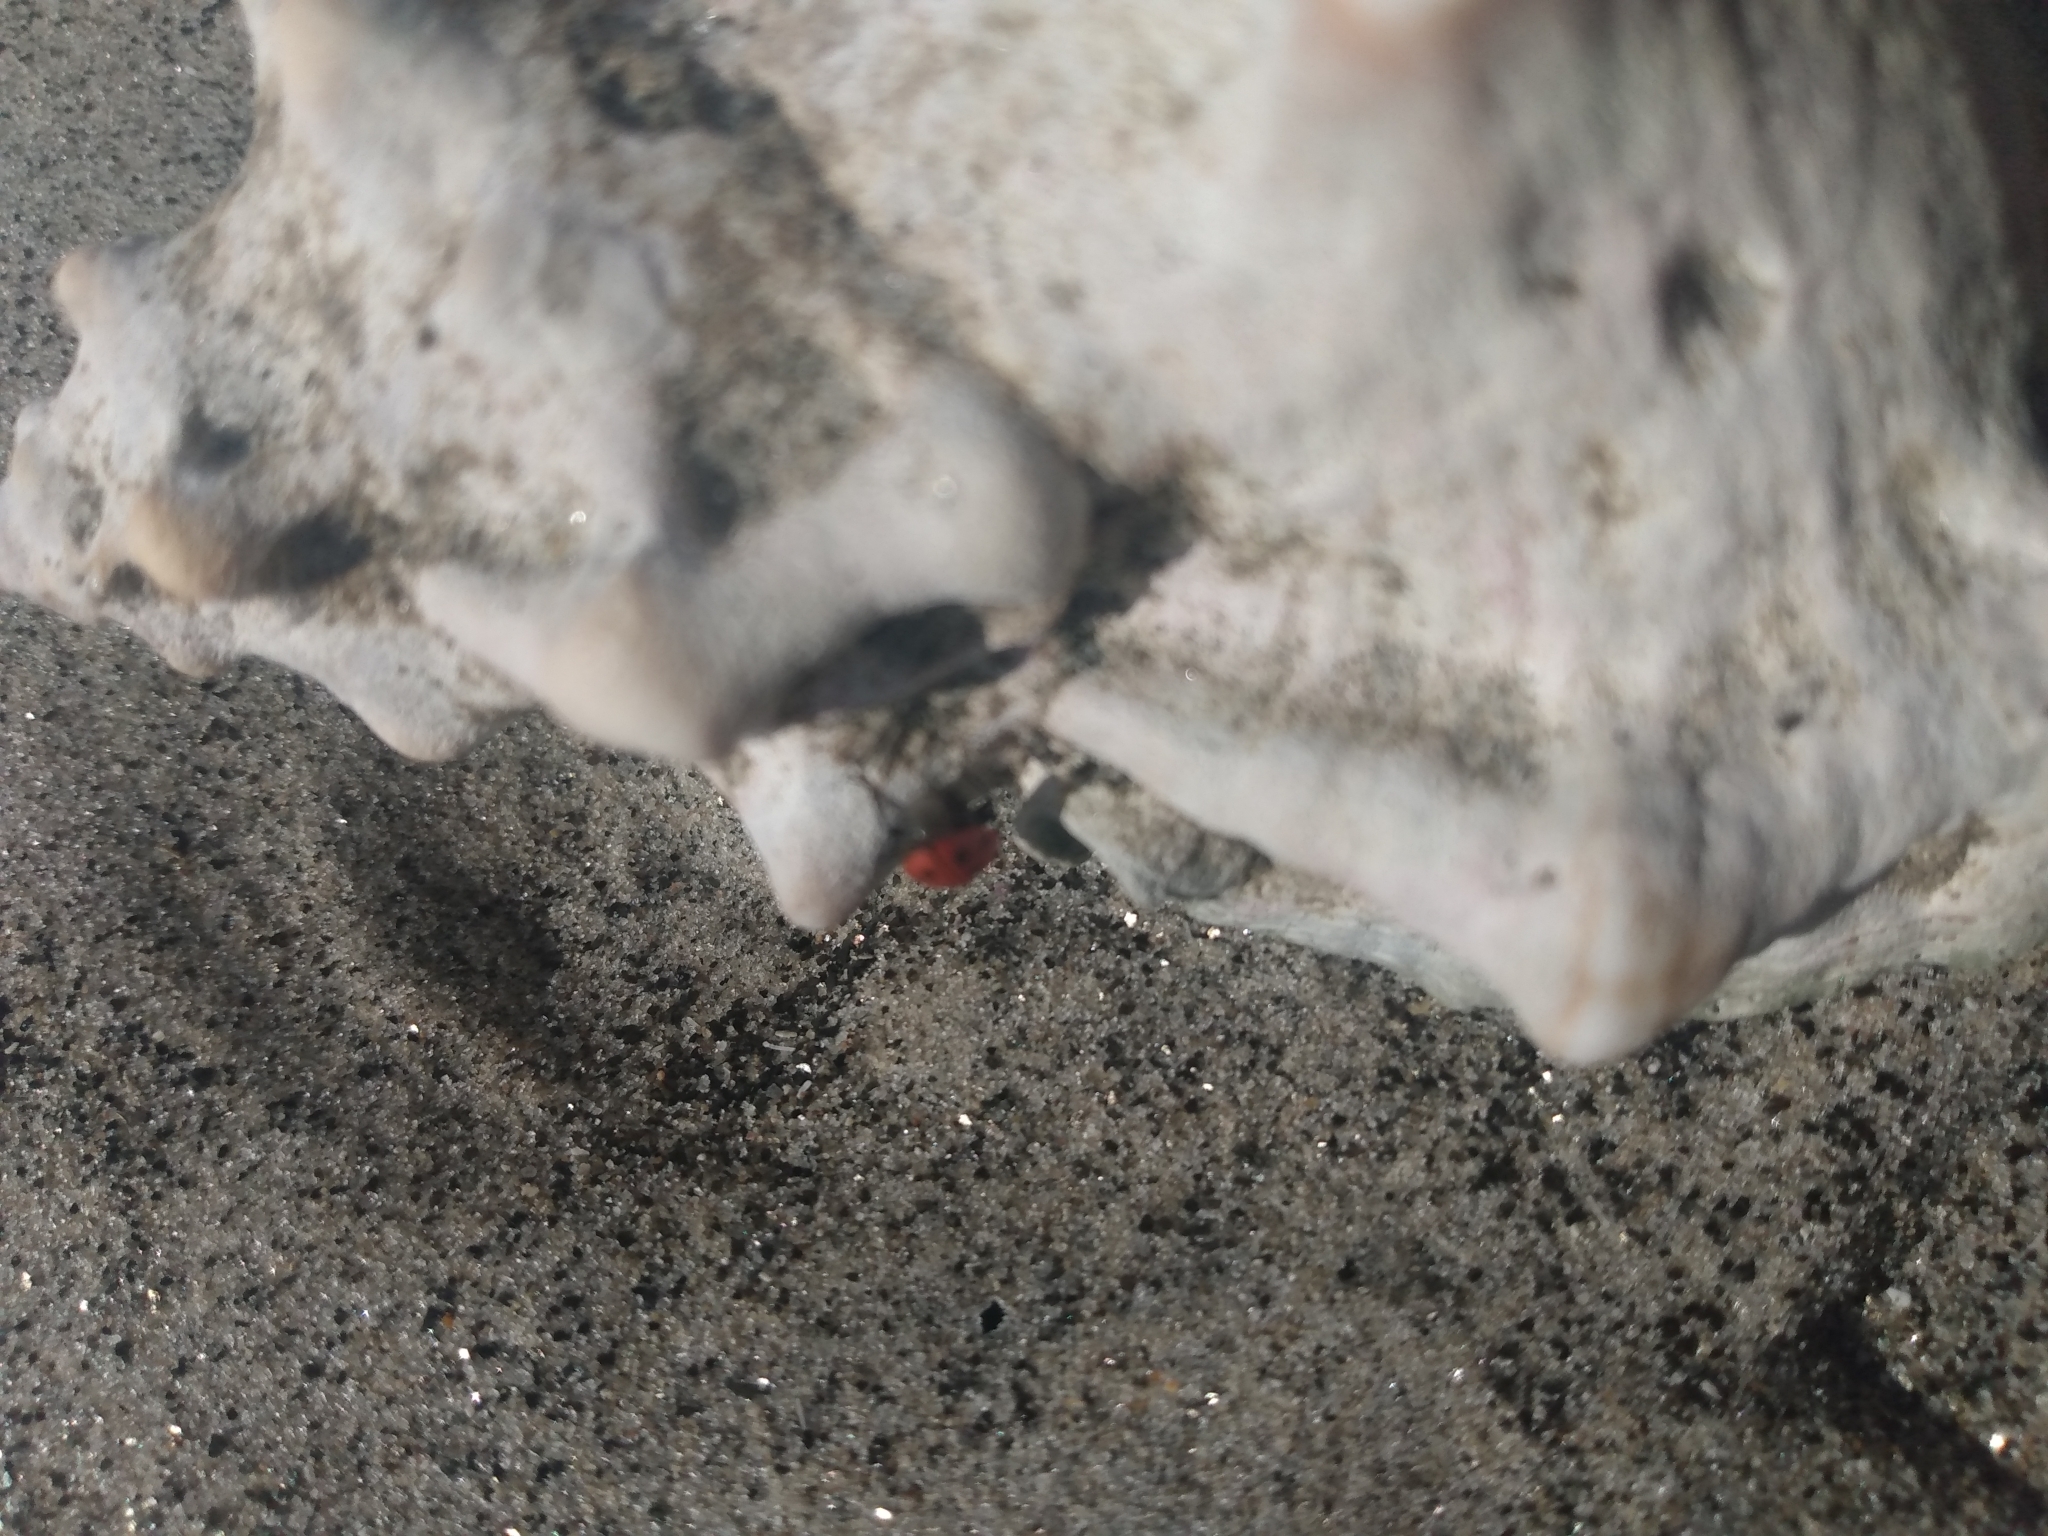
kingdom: Animalia
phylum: Mollusca
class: Gastropoda
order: Littorinimorpha
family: Bursidae
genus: Crossata
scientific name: Crossata californica
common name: California frogsnail
